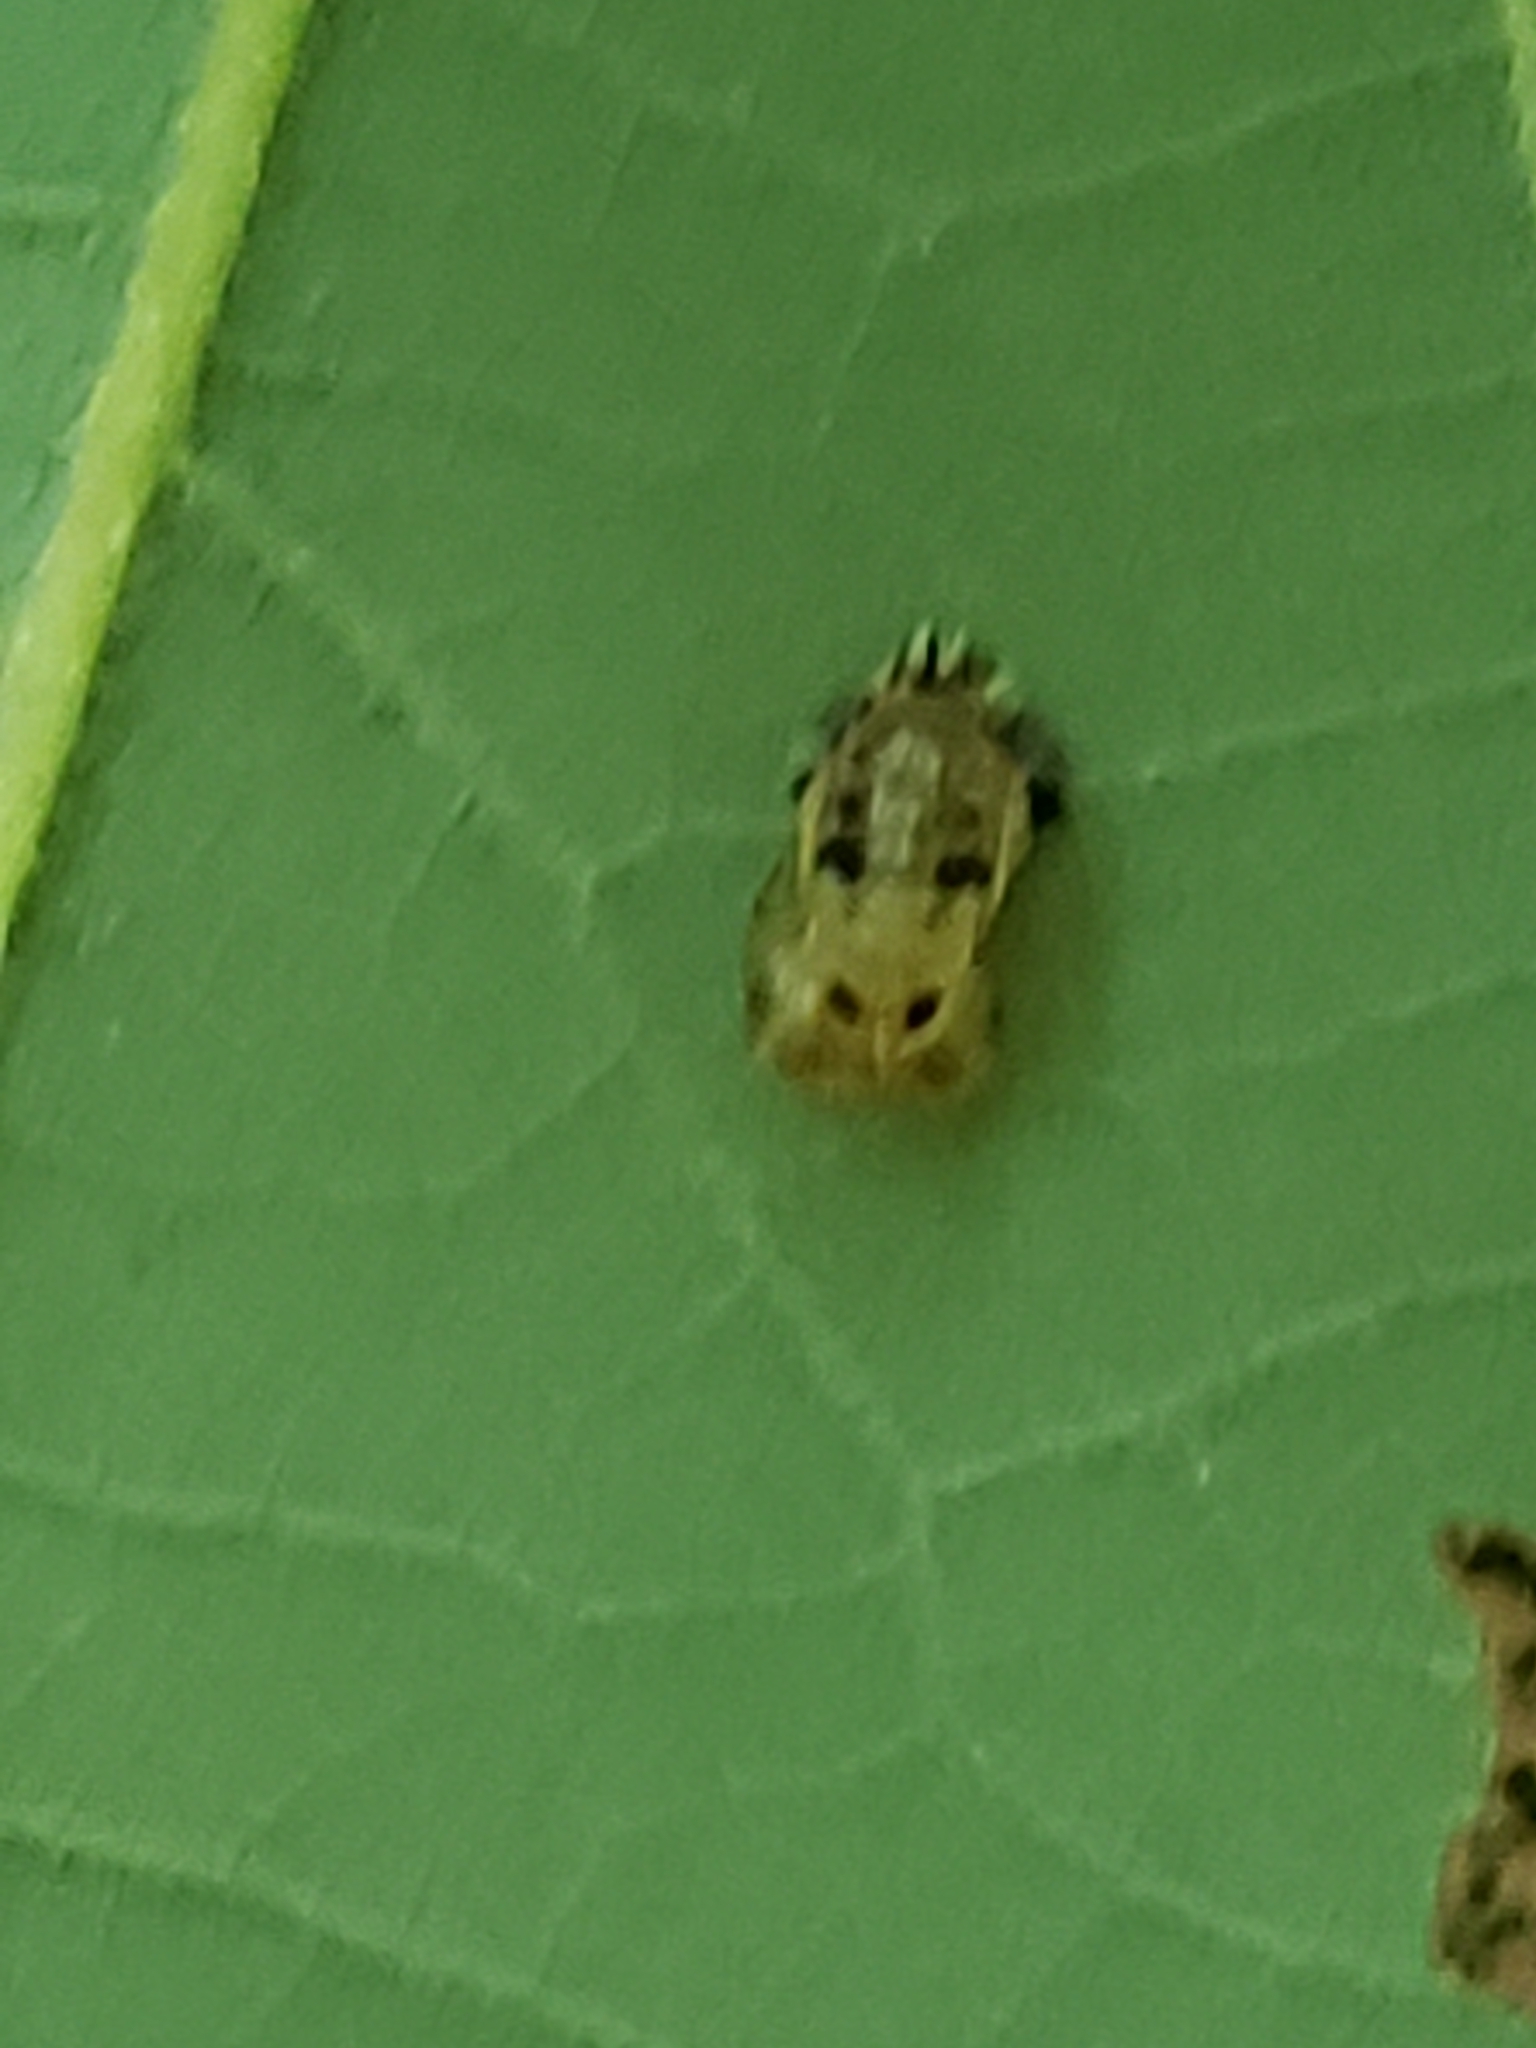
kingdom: Animalia
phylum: Arthropoda
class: Insecta
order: Coleoptera
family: Coccinellidae
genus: Harmonia
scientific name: Harmonia axyridis
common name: Harlequin ladybird
